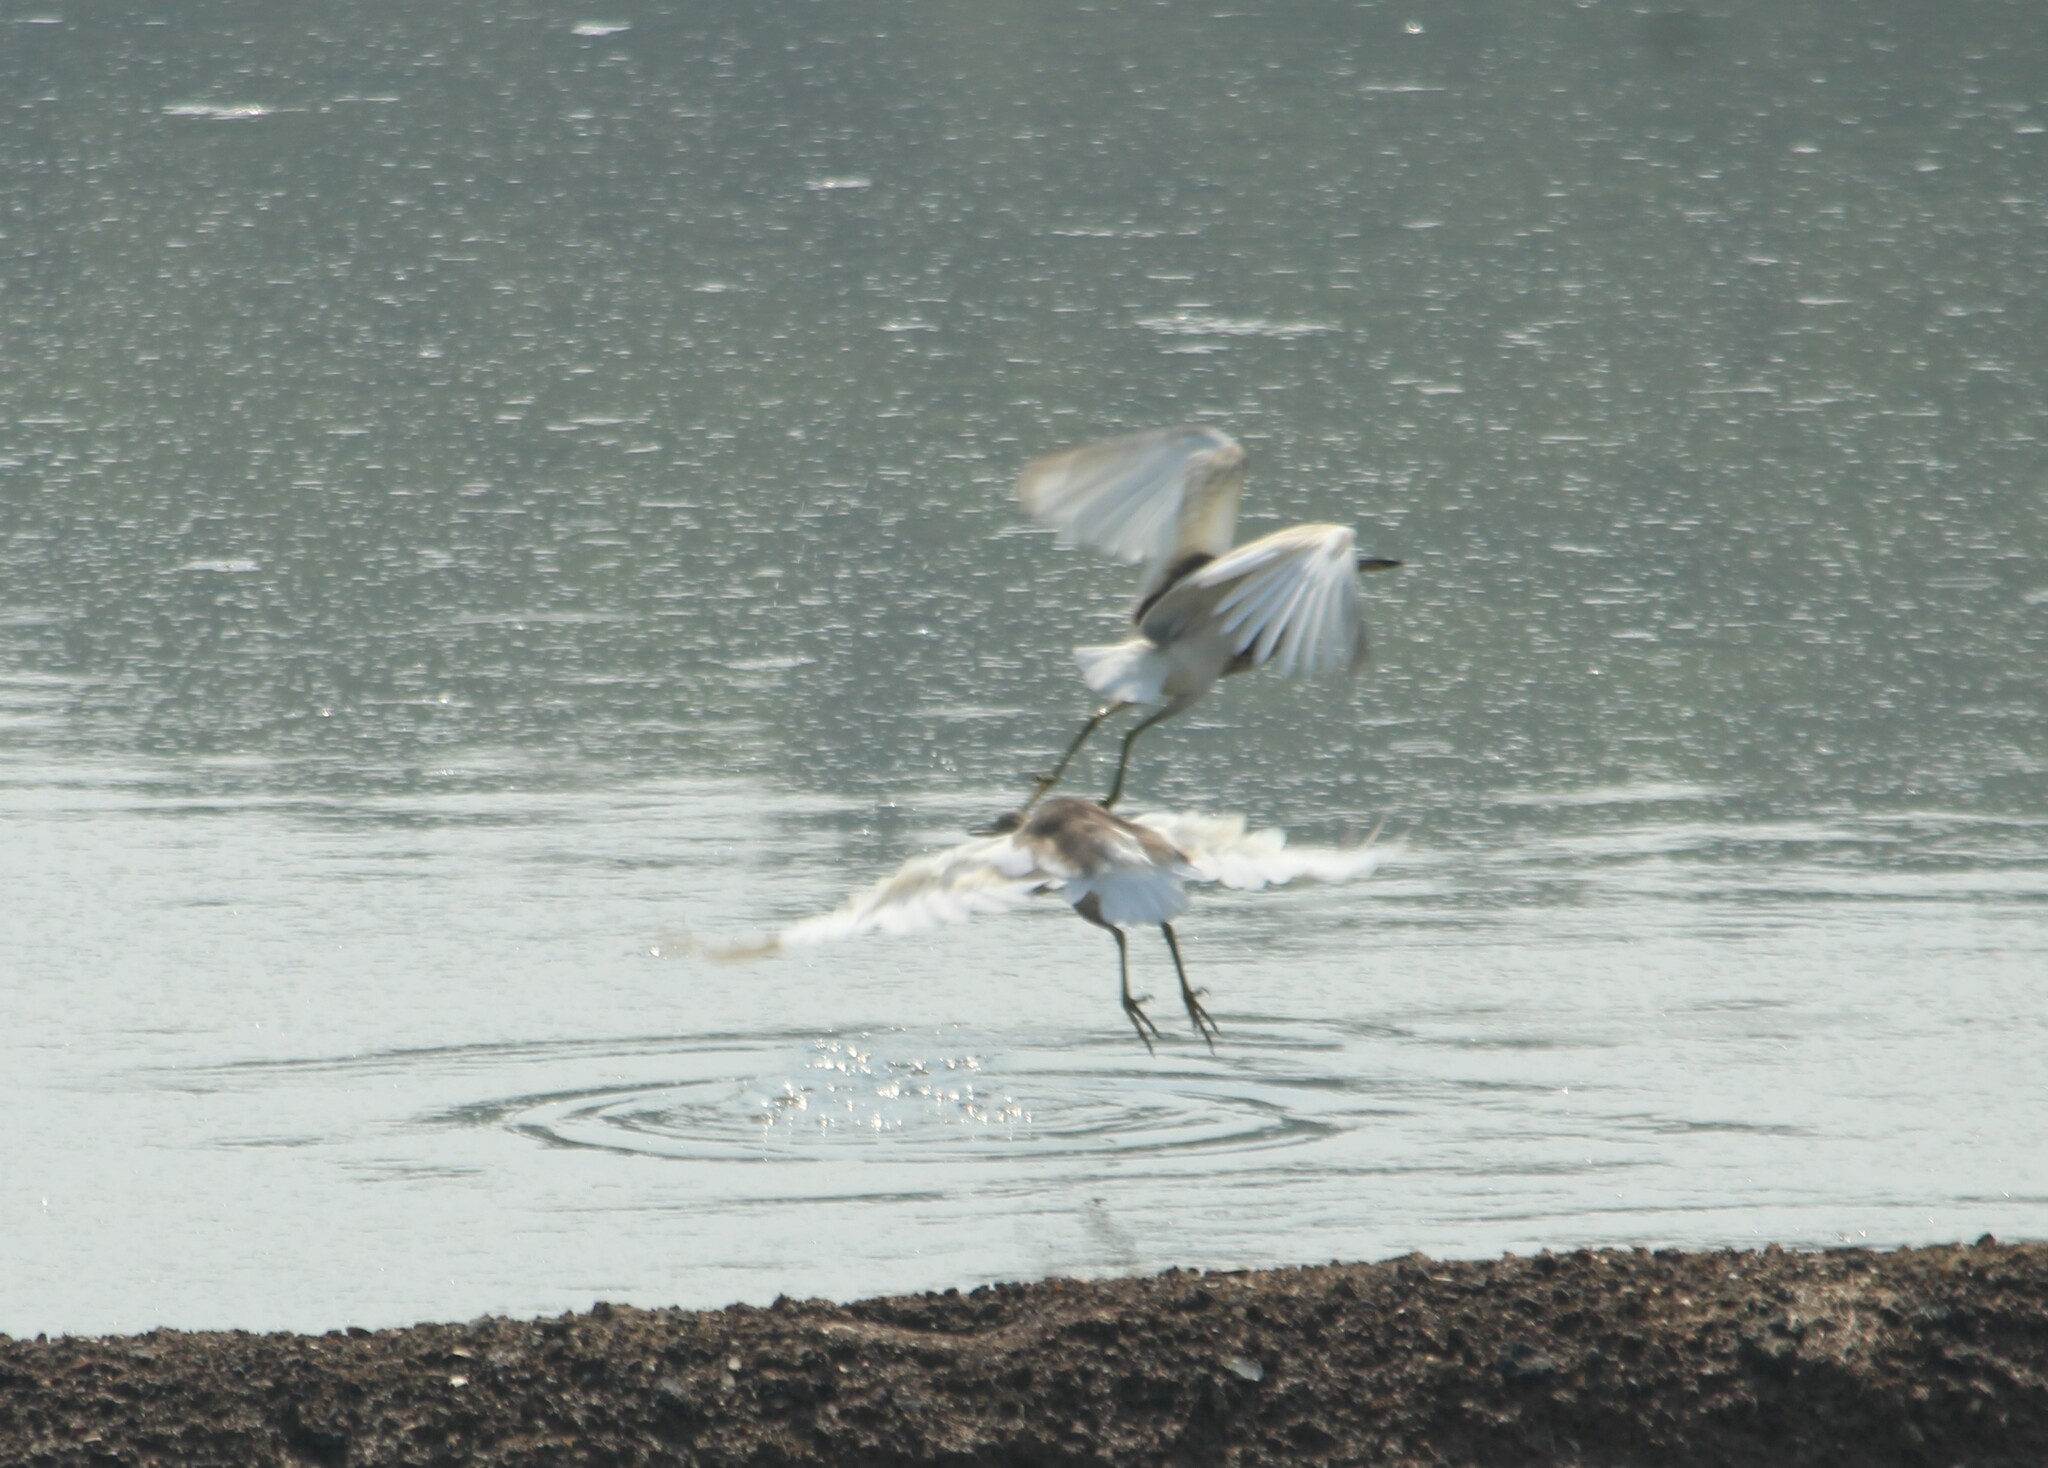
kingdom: Animalia
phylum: Chordata
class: Aves
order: Pelecaniformes
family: Ardeidae
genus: Ardeola
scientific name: Ardeola grayii
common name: Indian pond heron
